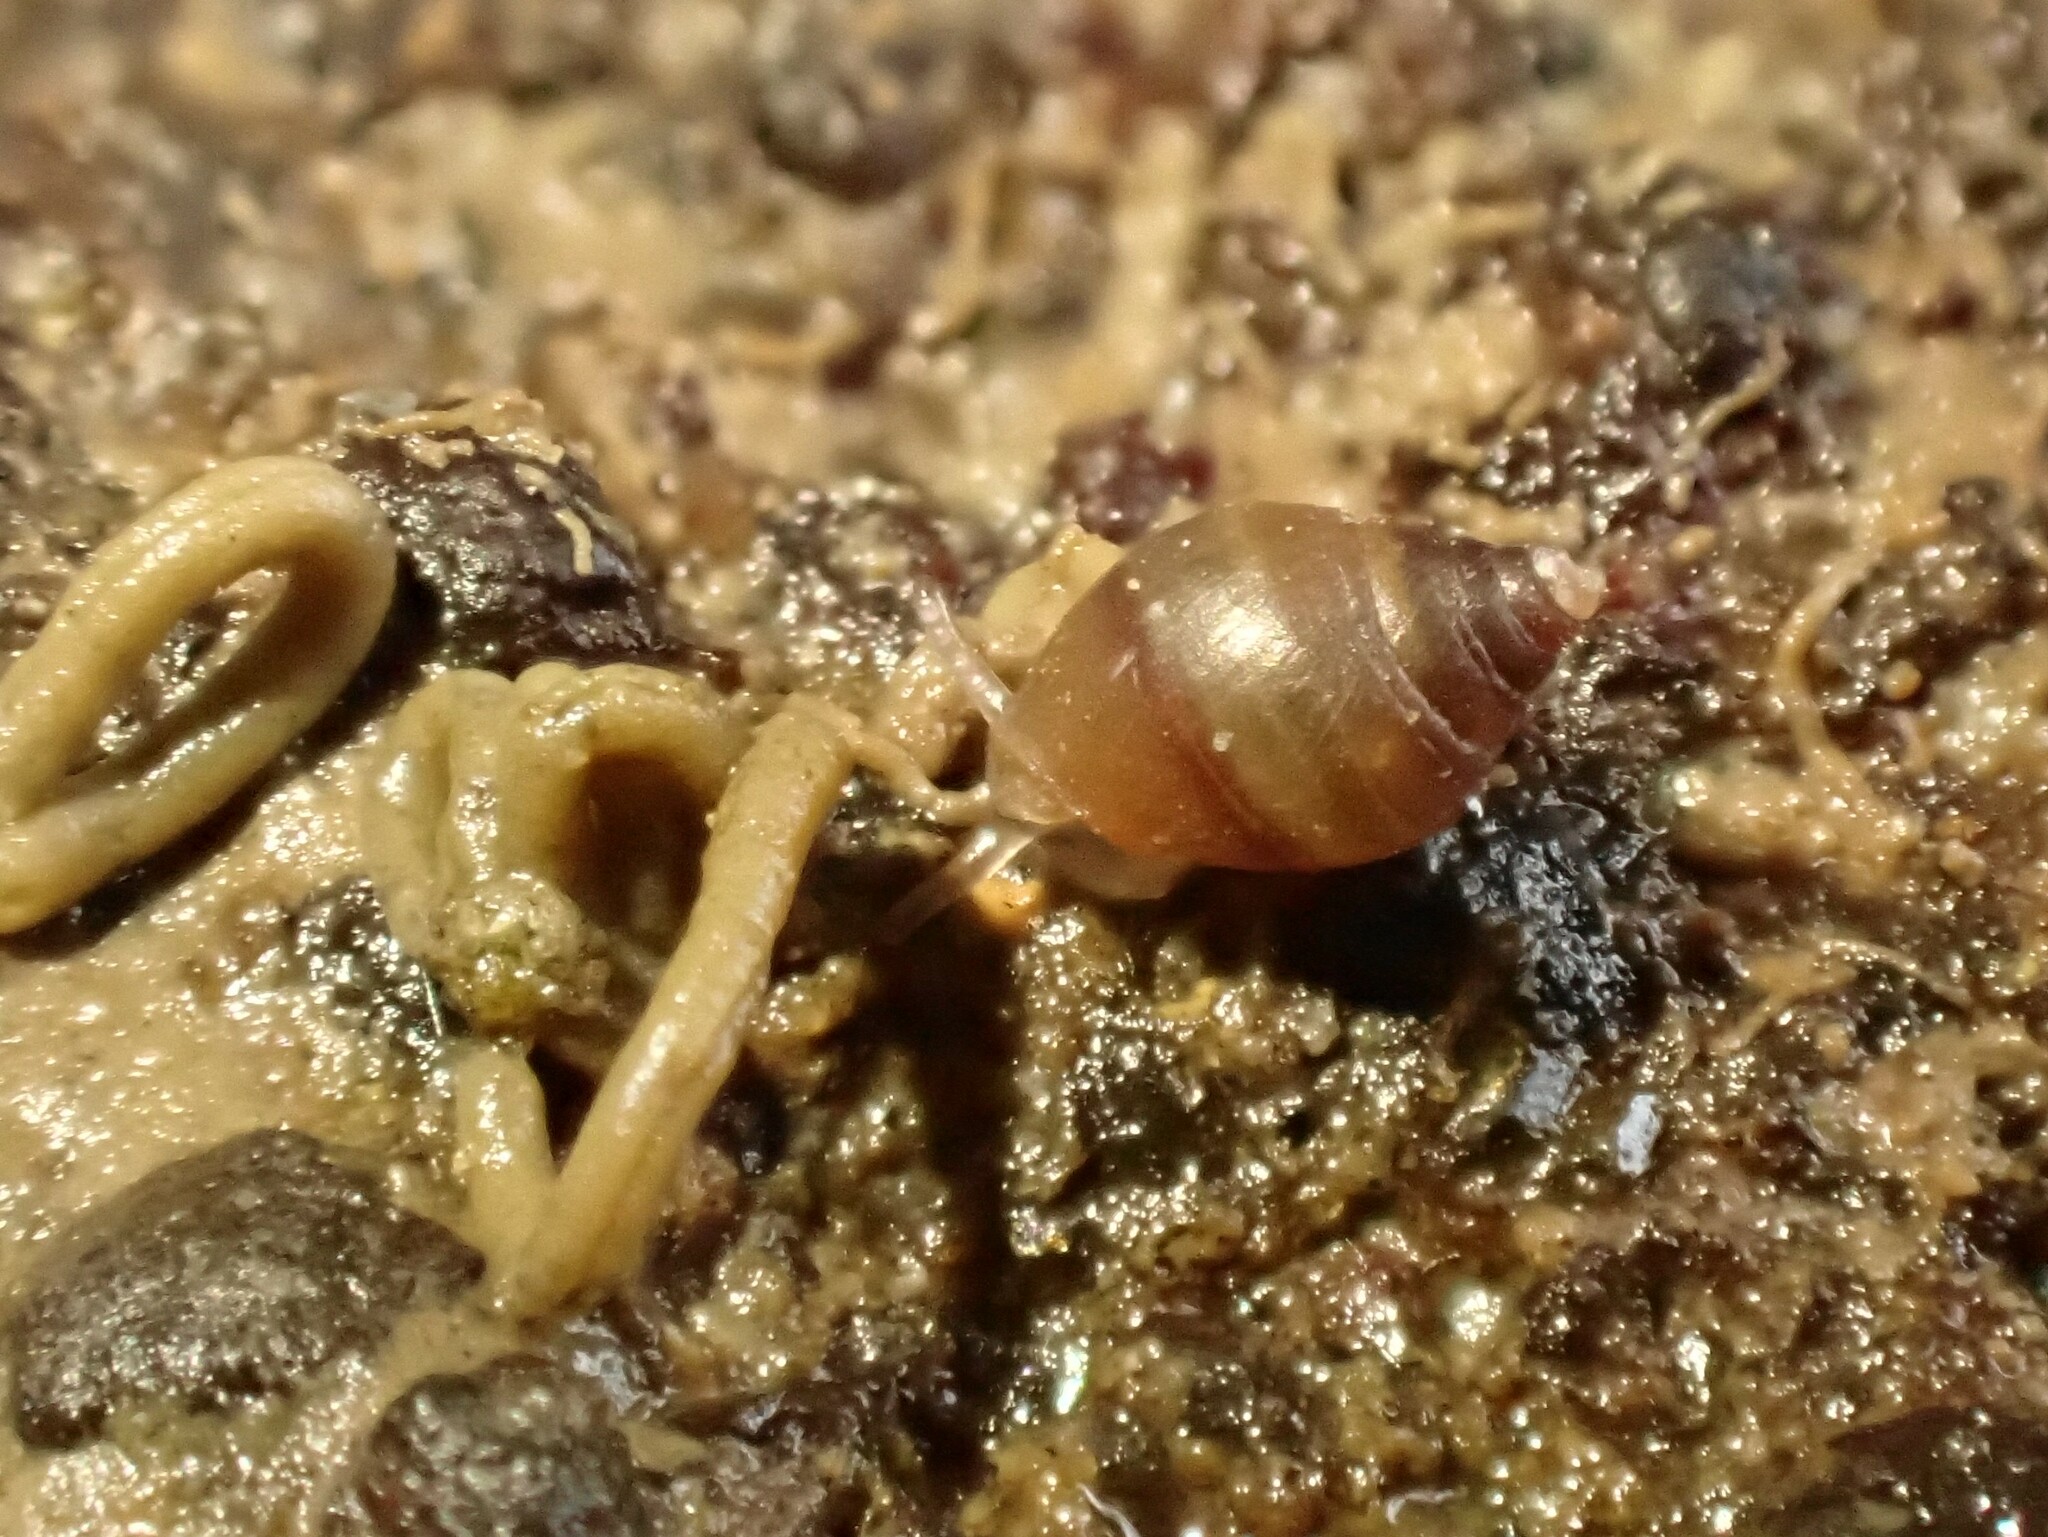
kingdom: Animalia
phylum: Mollusca
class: Gastropoda
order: Ellobiida
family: Ellobiidae
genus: Pleuroloba
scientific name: Pleuroloba costellaris
